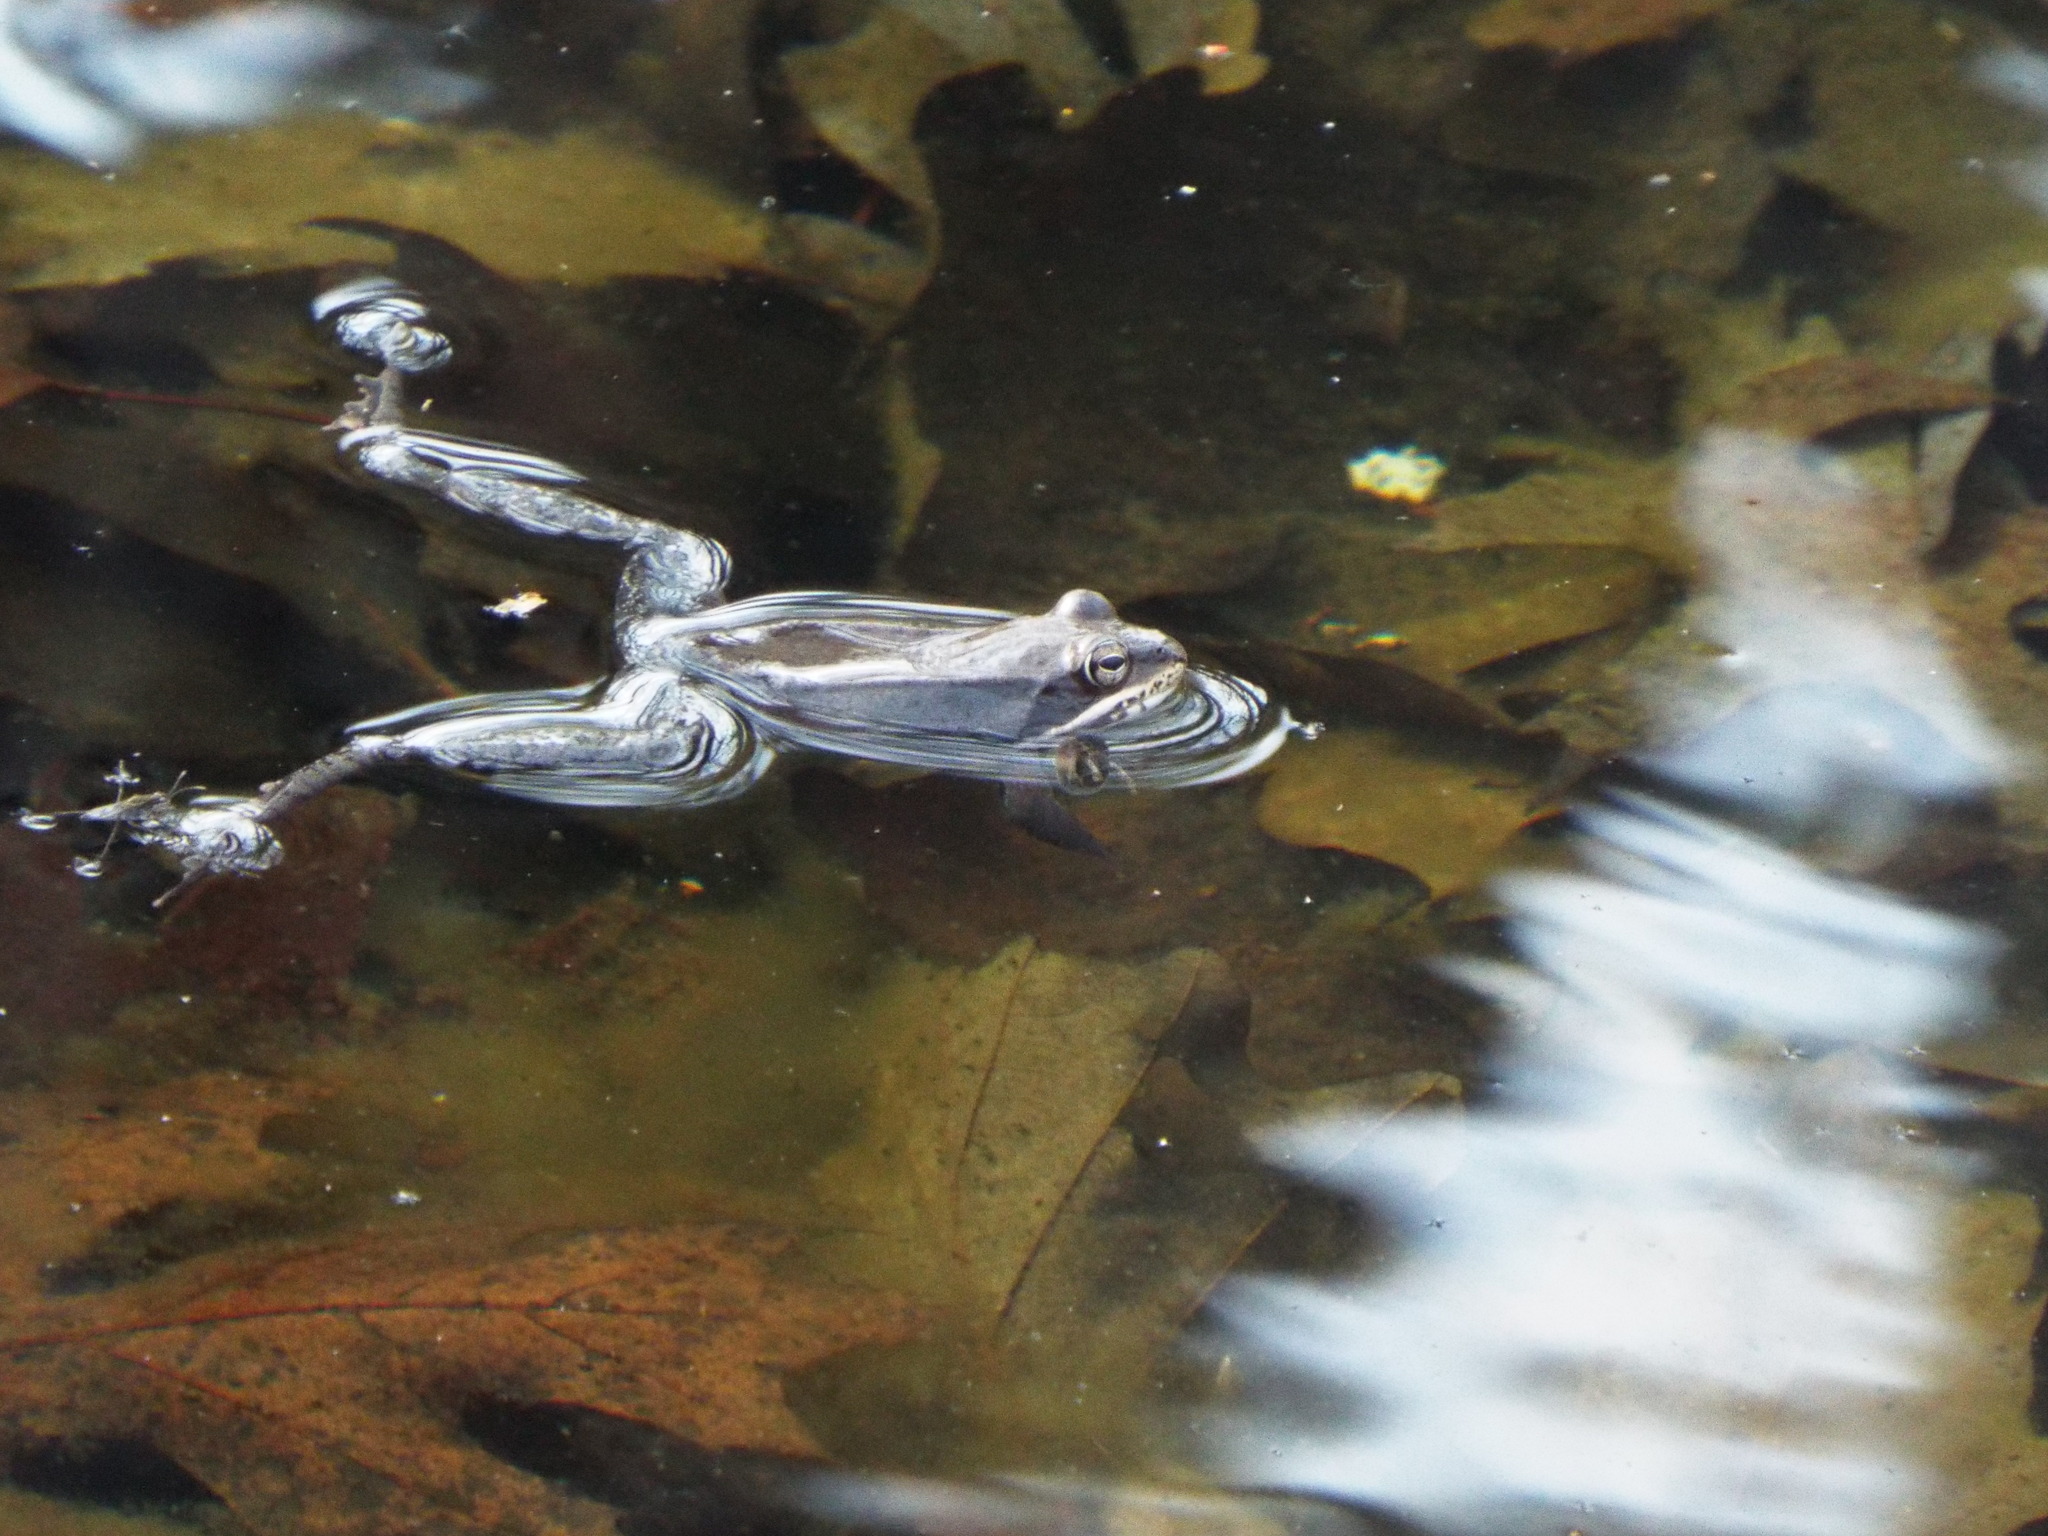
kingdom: Animalia
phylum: Chordata
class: Amphibia
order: Anura
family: Ranidae
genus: Lithobates
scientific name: Lithobates sylvaticus
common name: Wood frog
